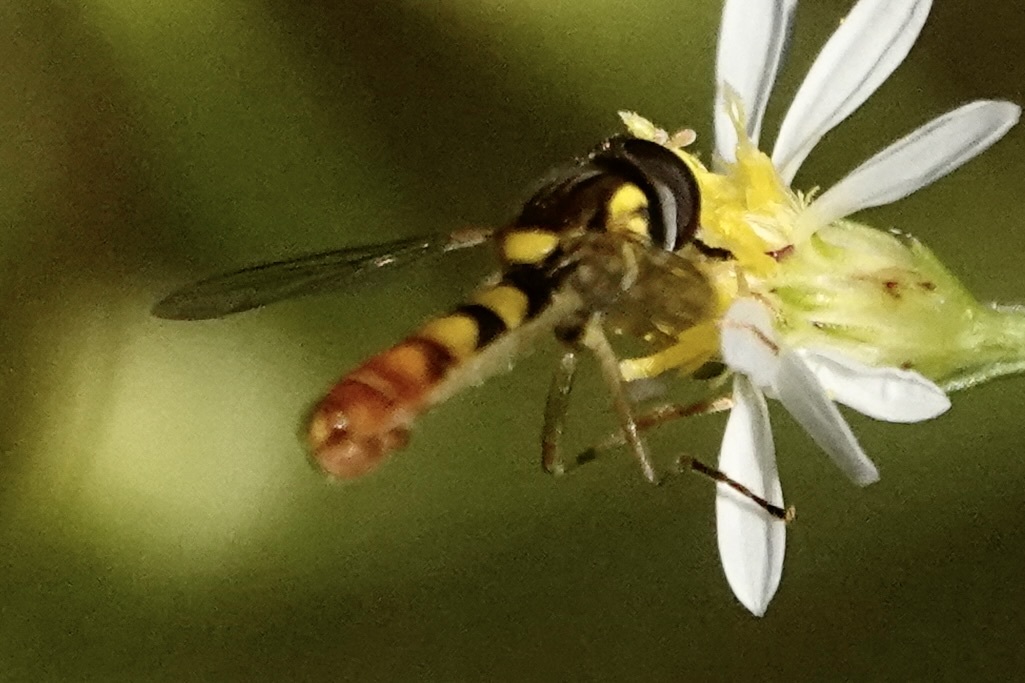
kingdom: Animalia
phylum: Arthropoda
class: Insecta
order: Diptera
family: Syrphidae
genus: Sphaerophoria
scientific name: Sphaerophoria contigua
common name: Tufted globetail
